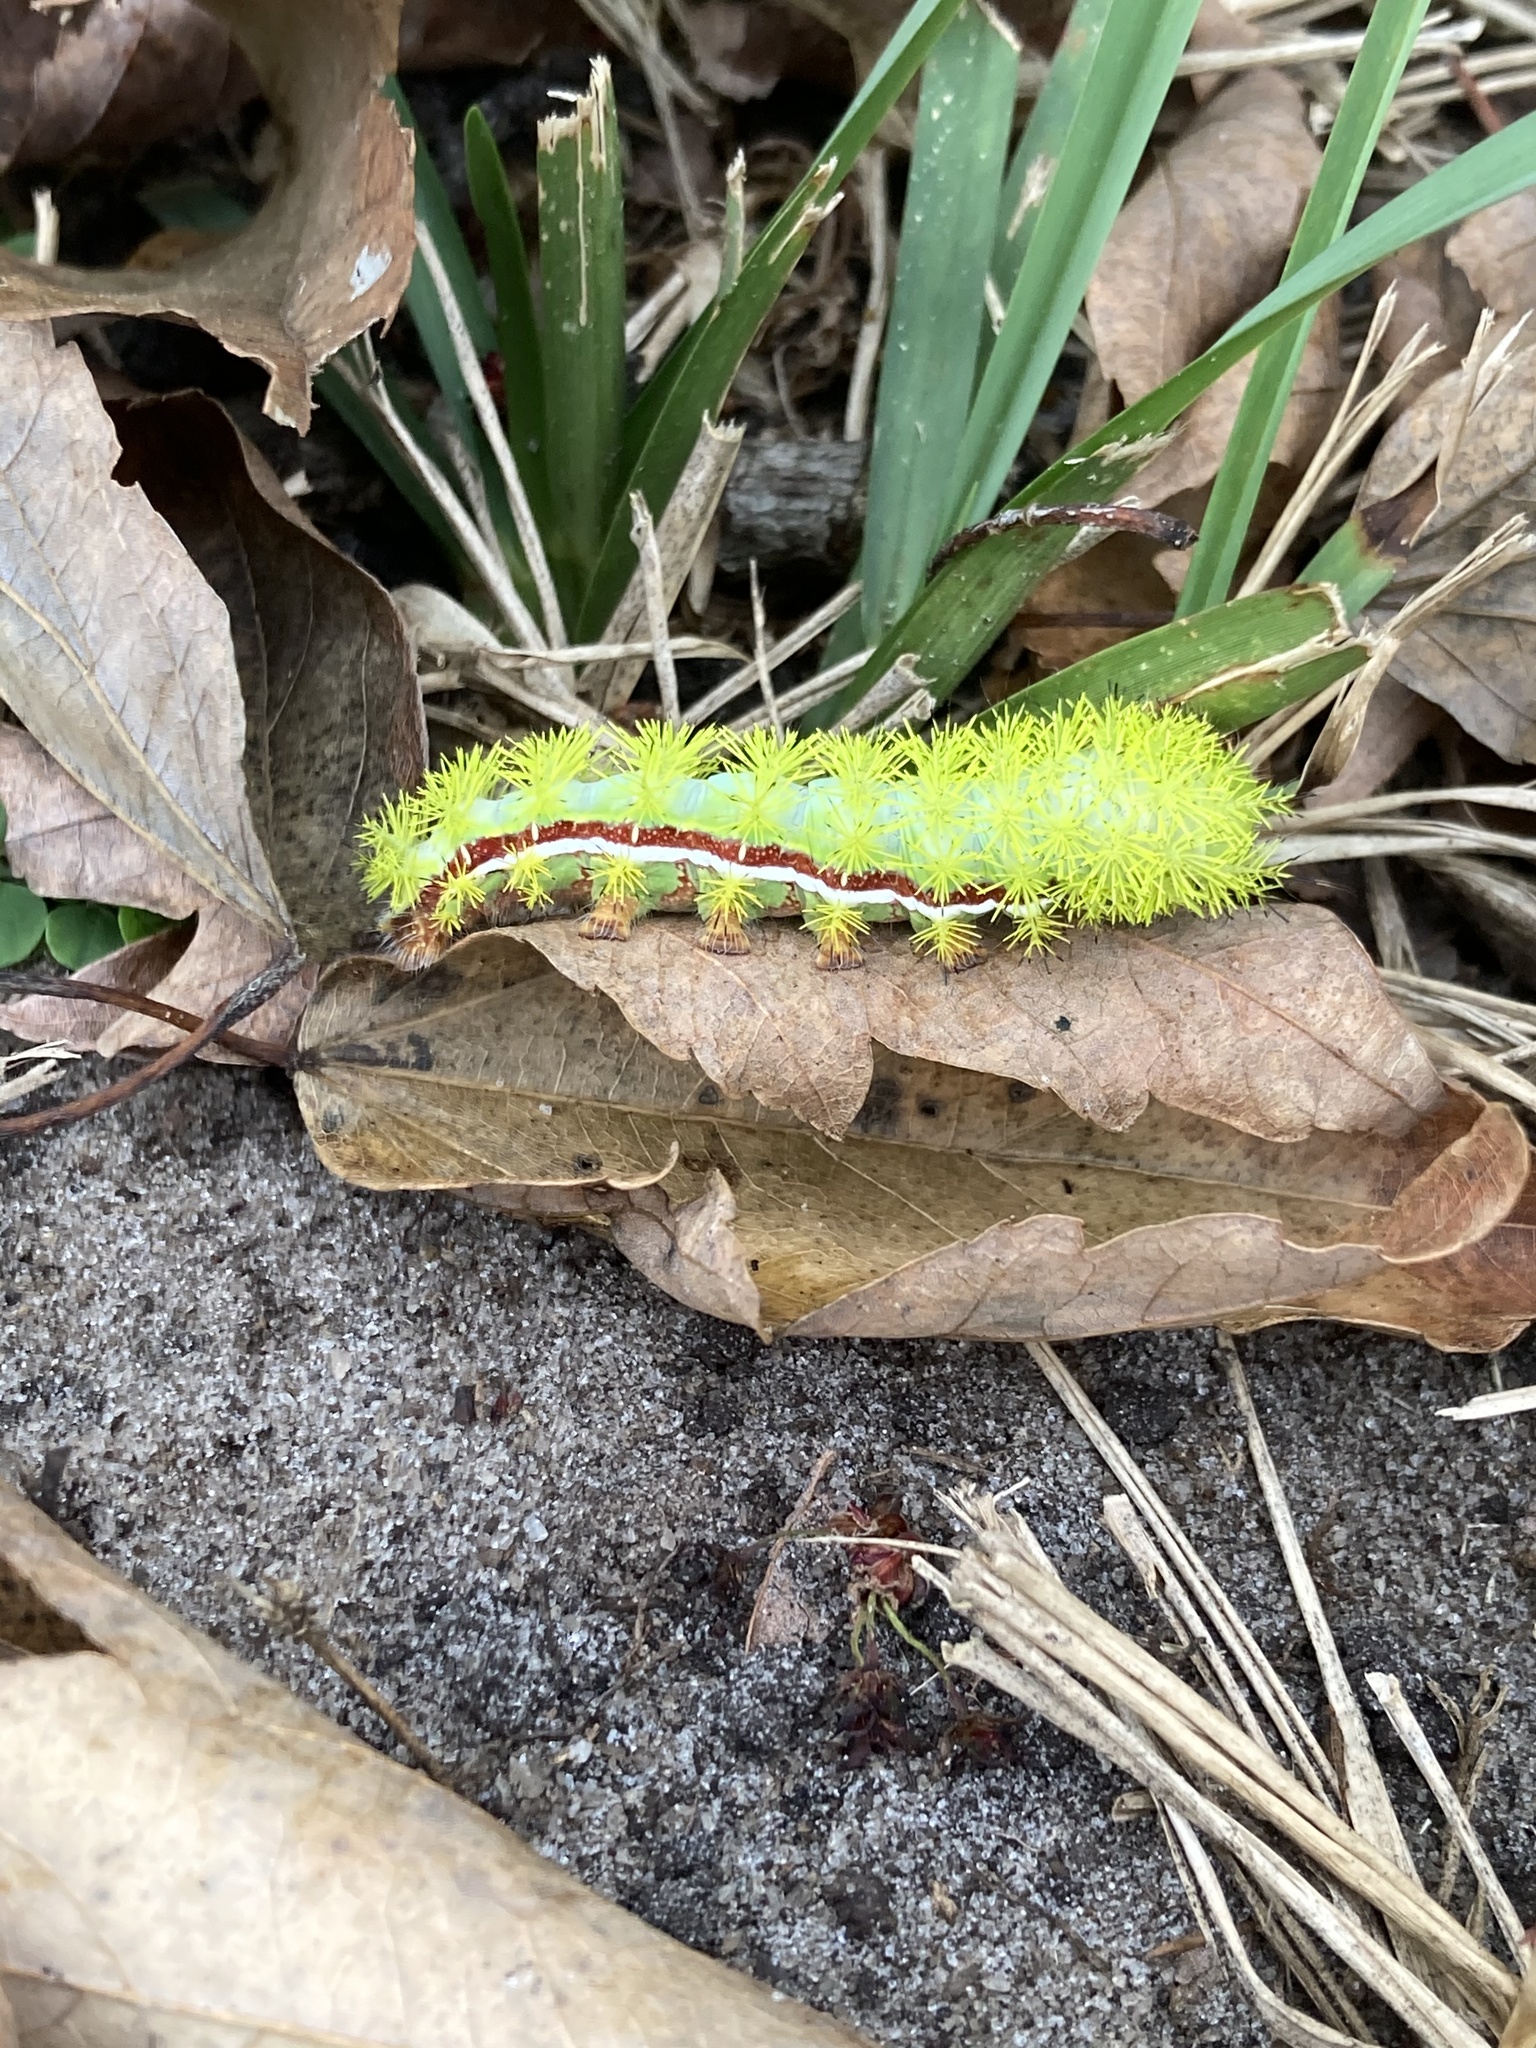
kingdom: Animalia
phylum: Arthropoda
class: Insecta
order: Lepidoptera
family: Saturniidae
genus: Automeris
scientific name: Automeris io
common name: Io moth
